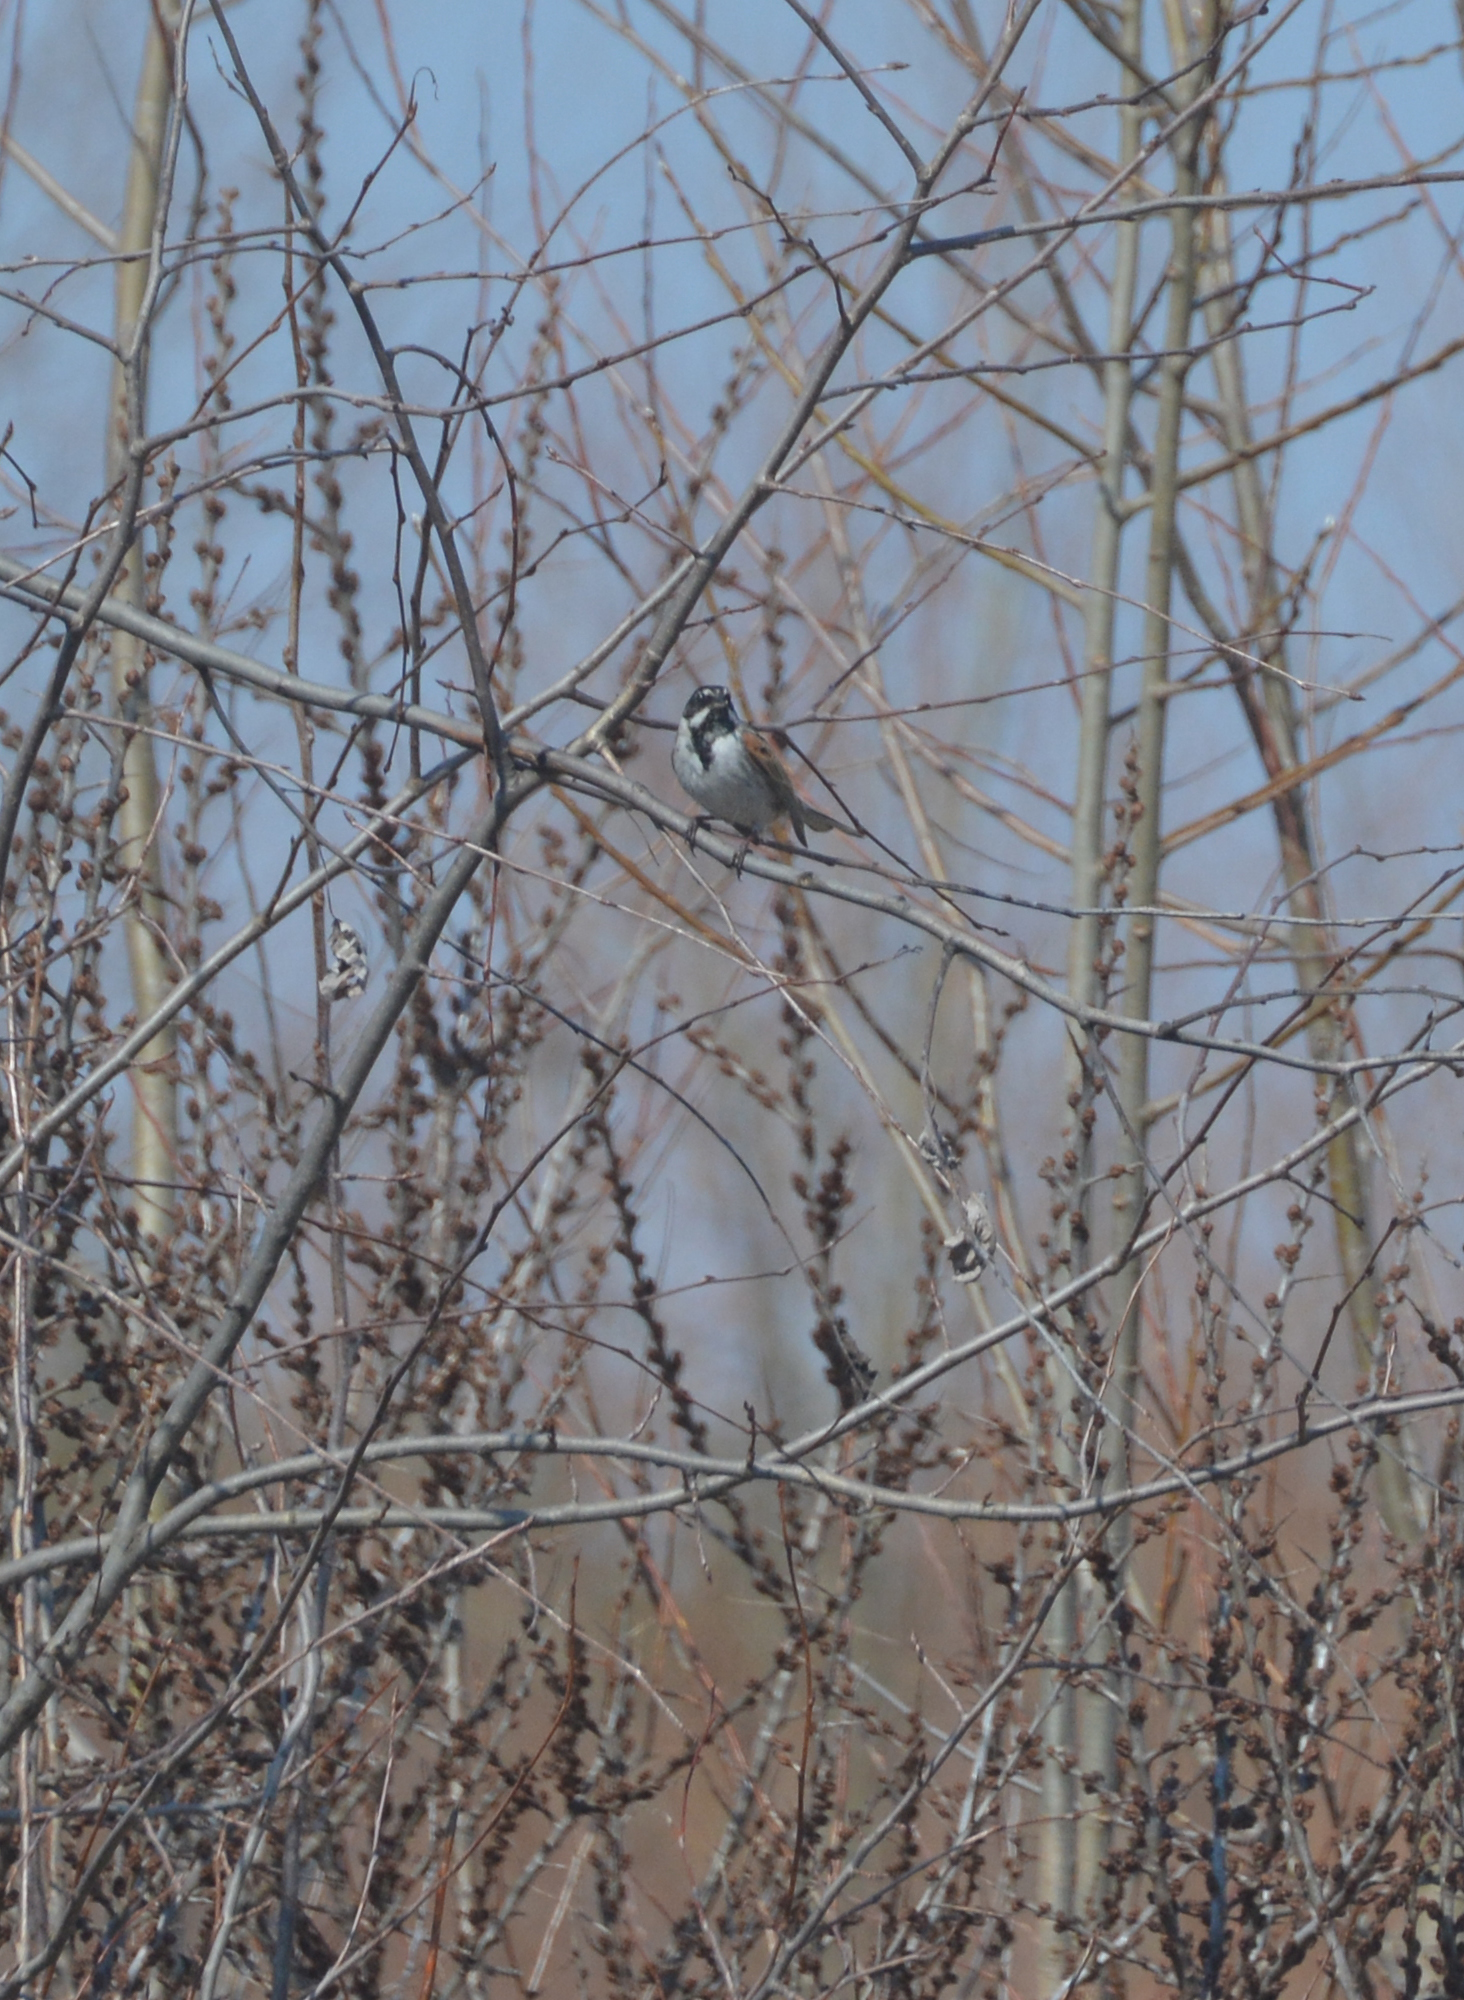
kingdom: Animalia
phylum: Chordata
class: Aves
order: Passeriformes
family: Emberizidae
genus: Emberiza
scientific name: Emberiza schoeniclus
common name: Reed bunting
